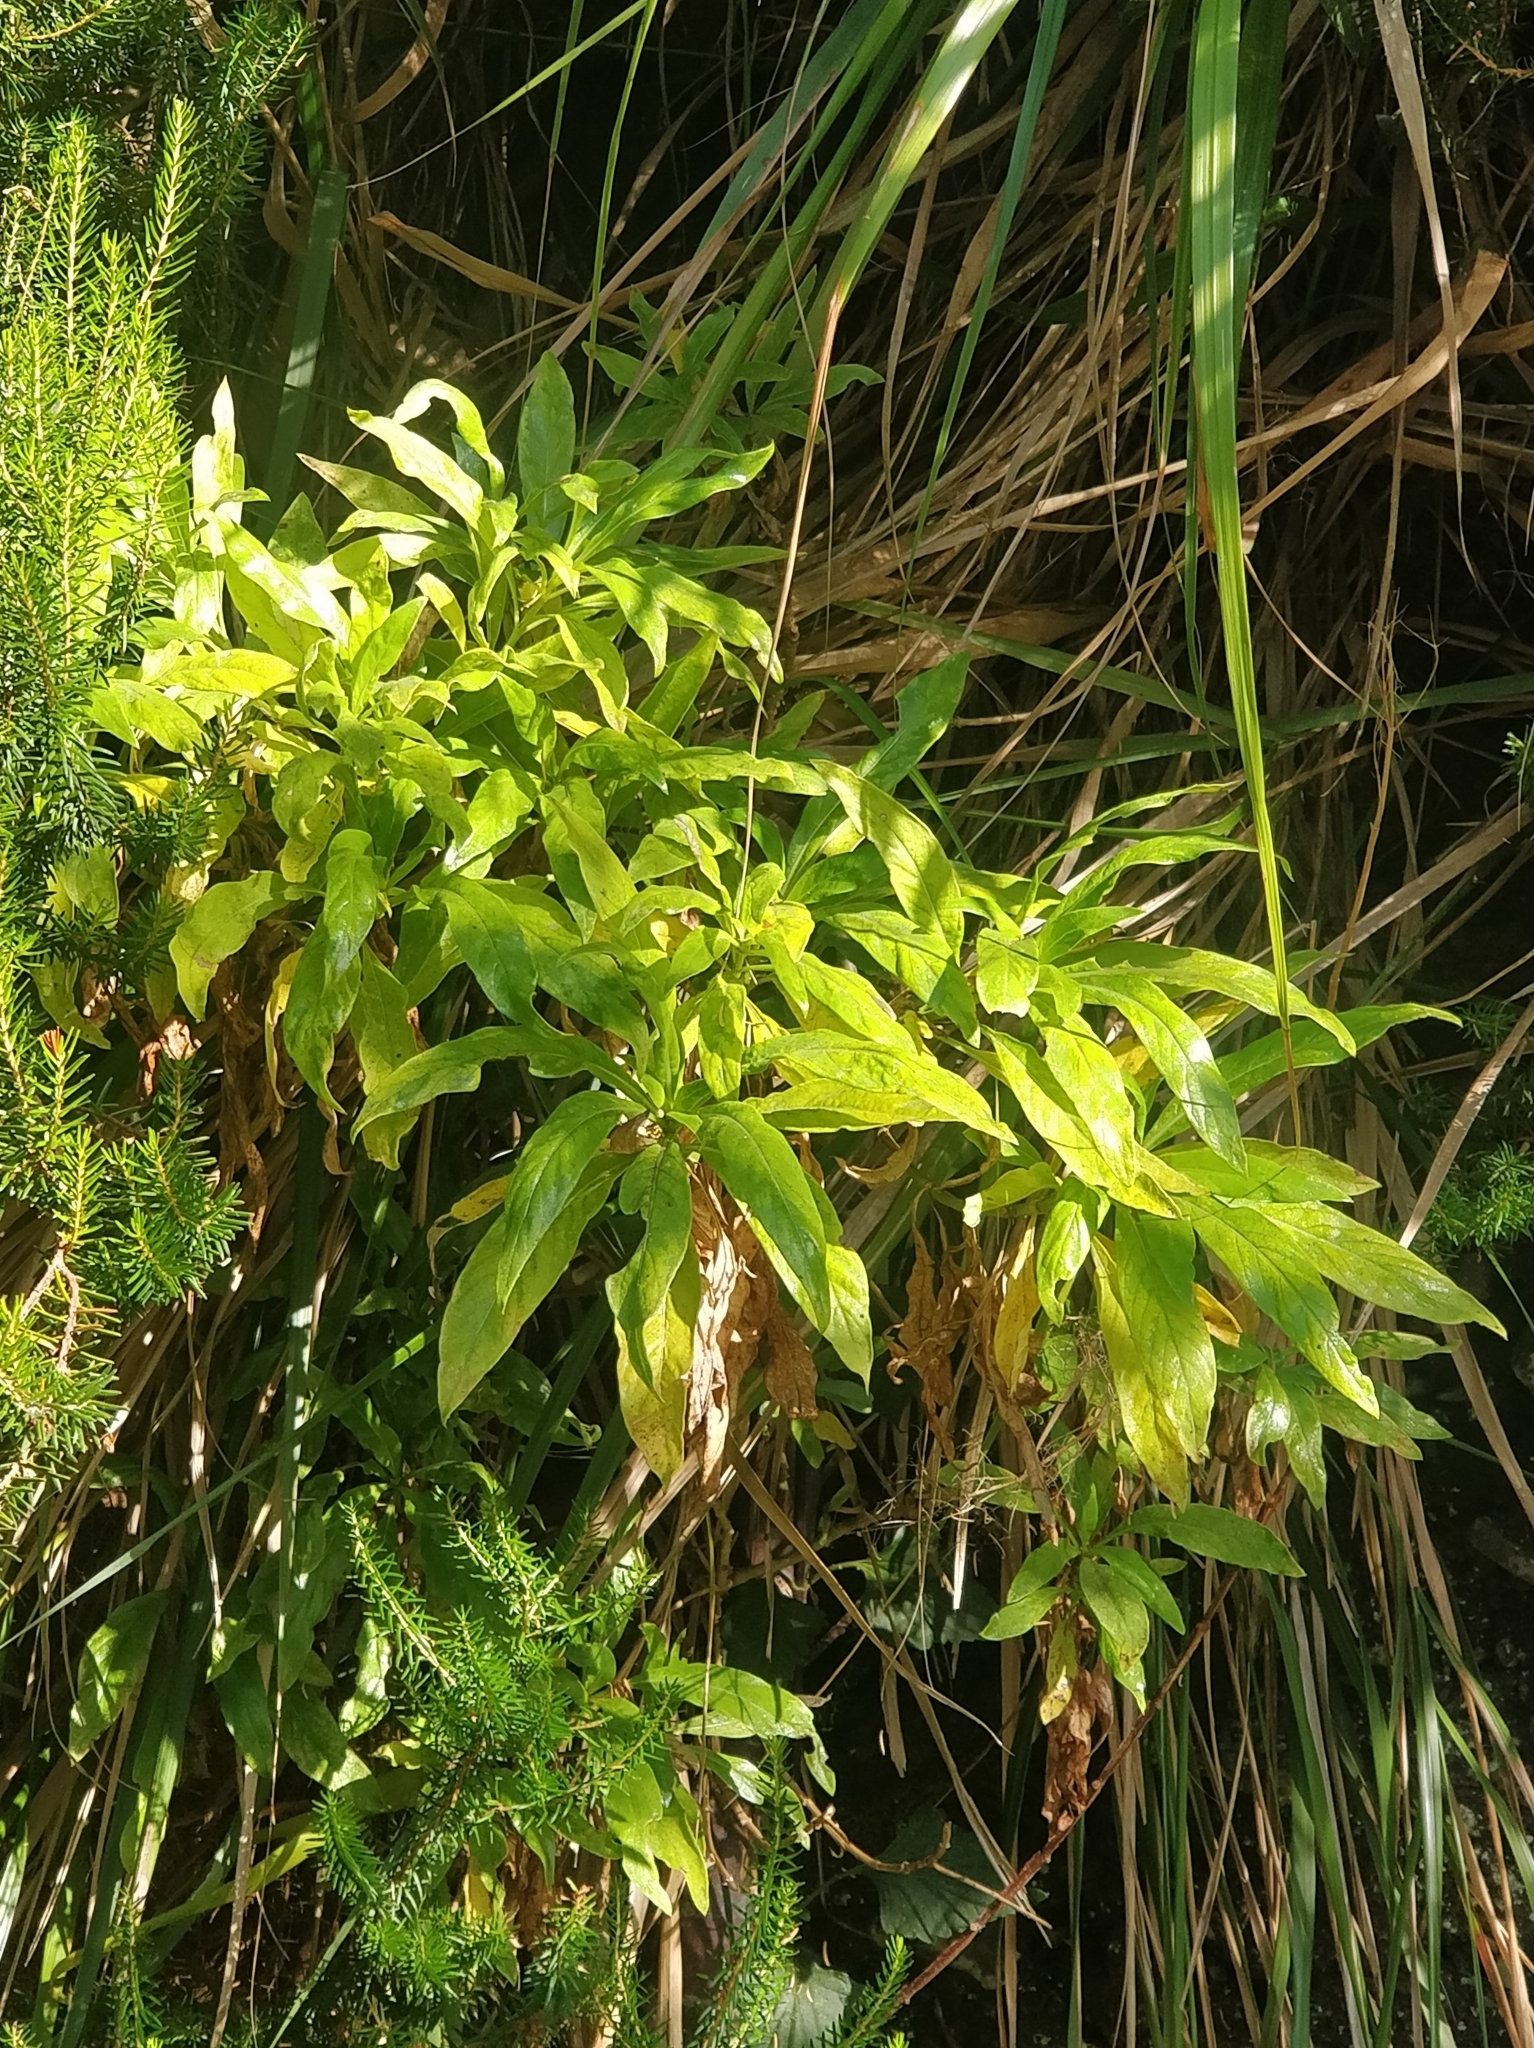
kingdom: Plantae
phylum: Tracheophyta
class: Magnoliopsida
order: Gentianales
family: Rubiaceae
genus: Phyllis
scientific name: Phyllis nobla
